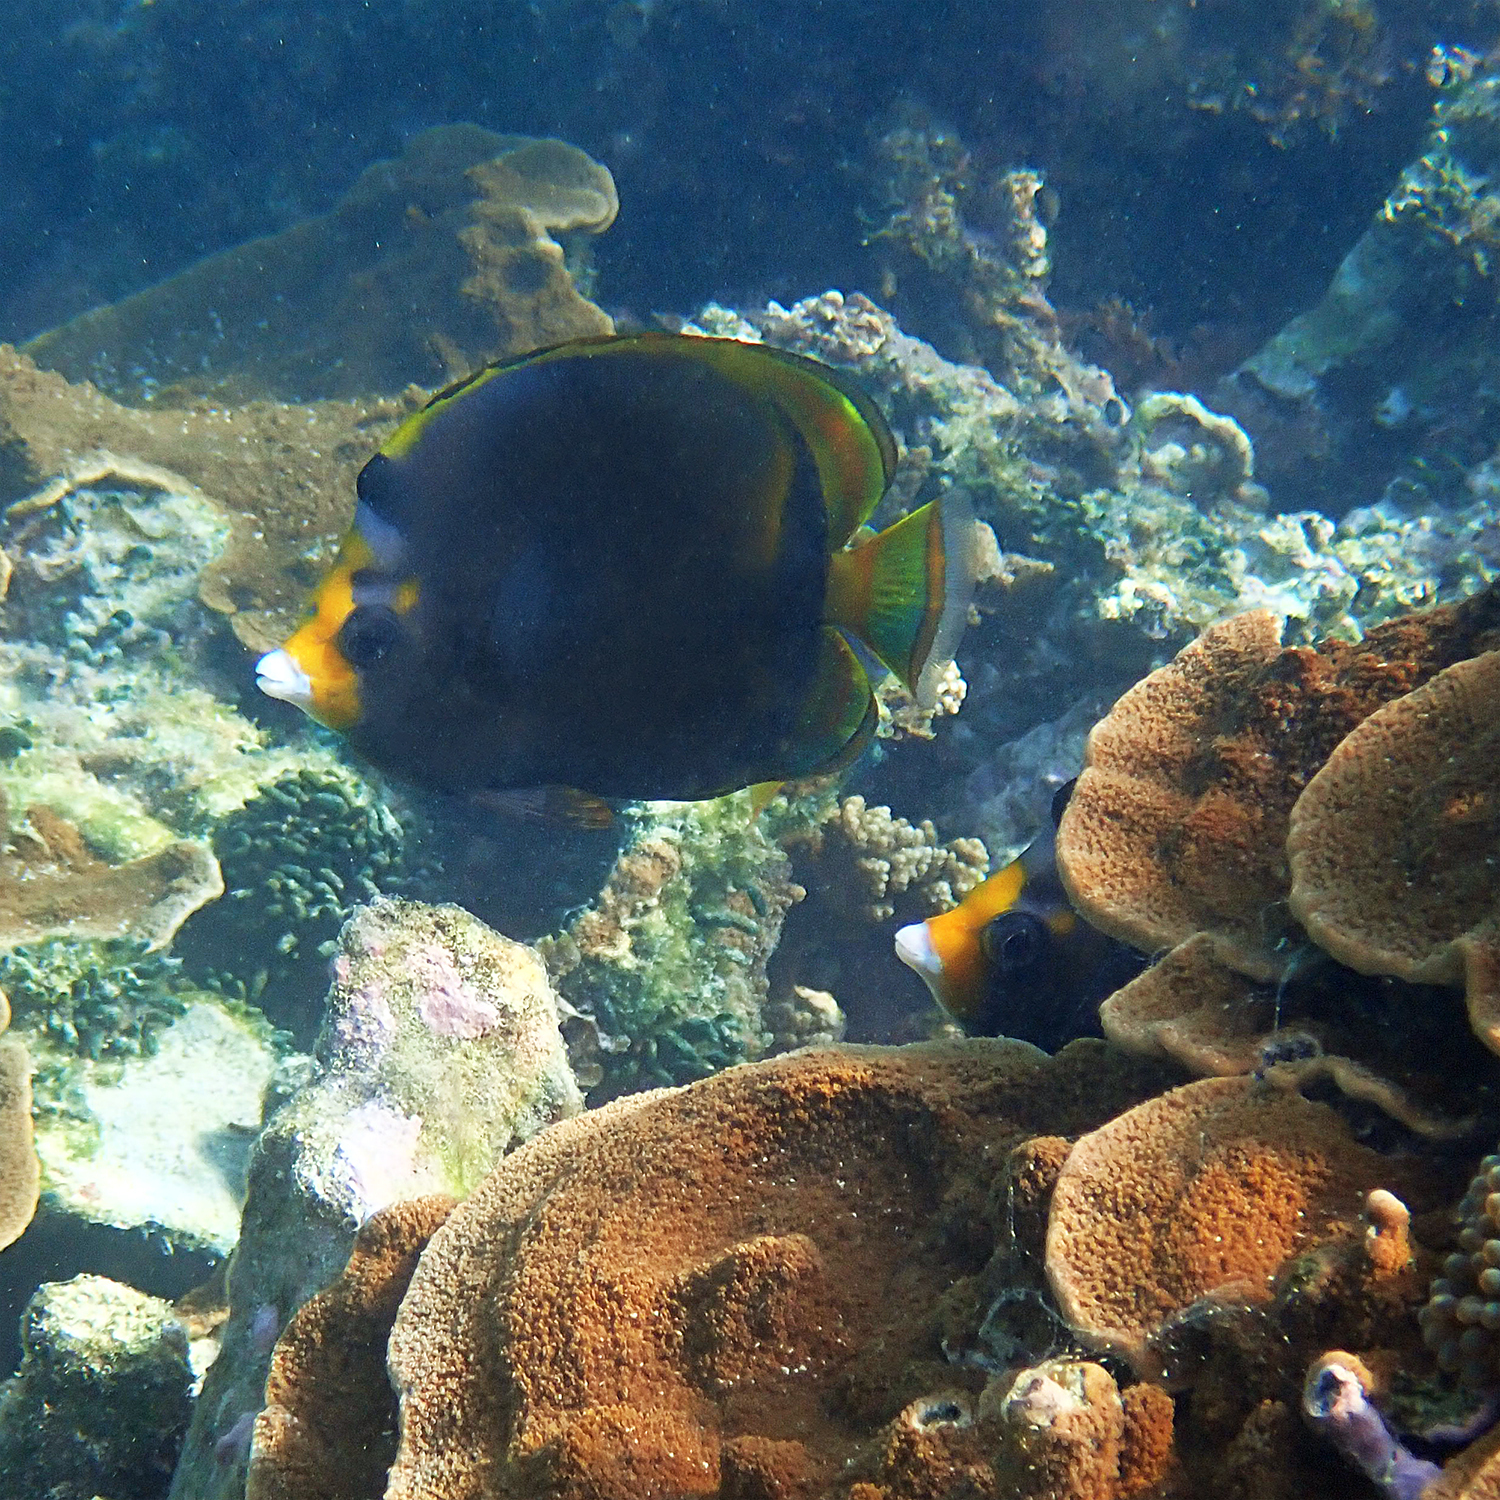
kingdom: Animalia
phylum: Chordata
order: Perciformes
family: Chaetodontidae
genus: Chaetodon
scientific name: Chaetodon flavirostris
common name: Black butterflyfish
